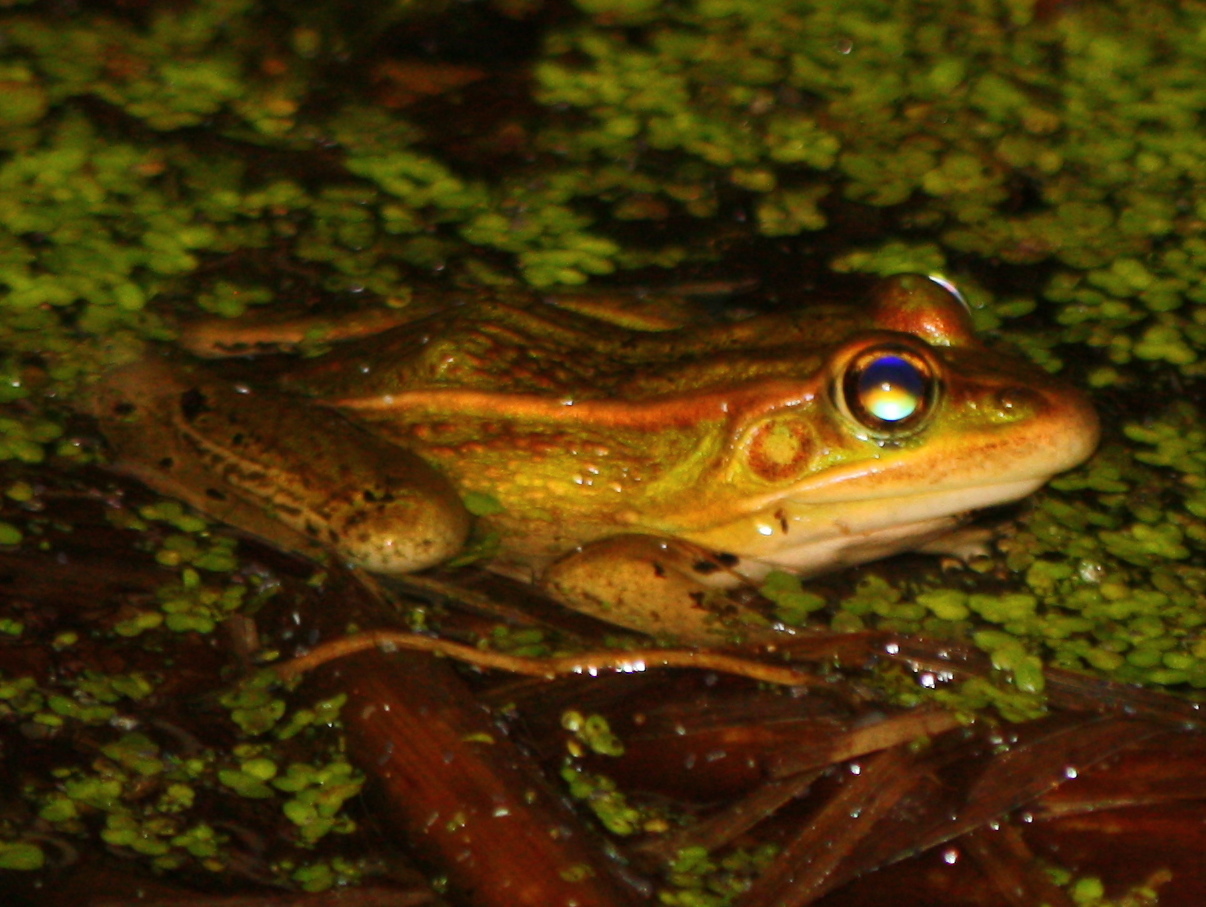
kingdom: Animalia
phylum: Chordata
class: Amphibia
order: Anura
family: Ranidae
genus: Lithobates
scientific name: Lithobates pipiens
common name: Northern leopard frog
